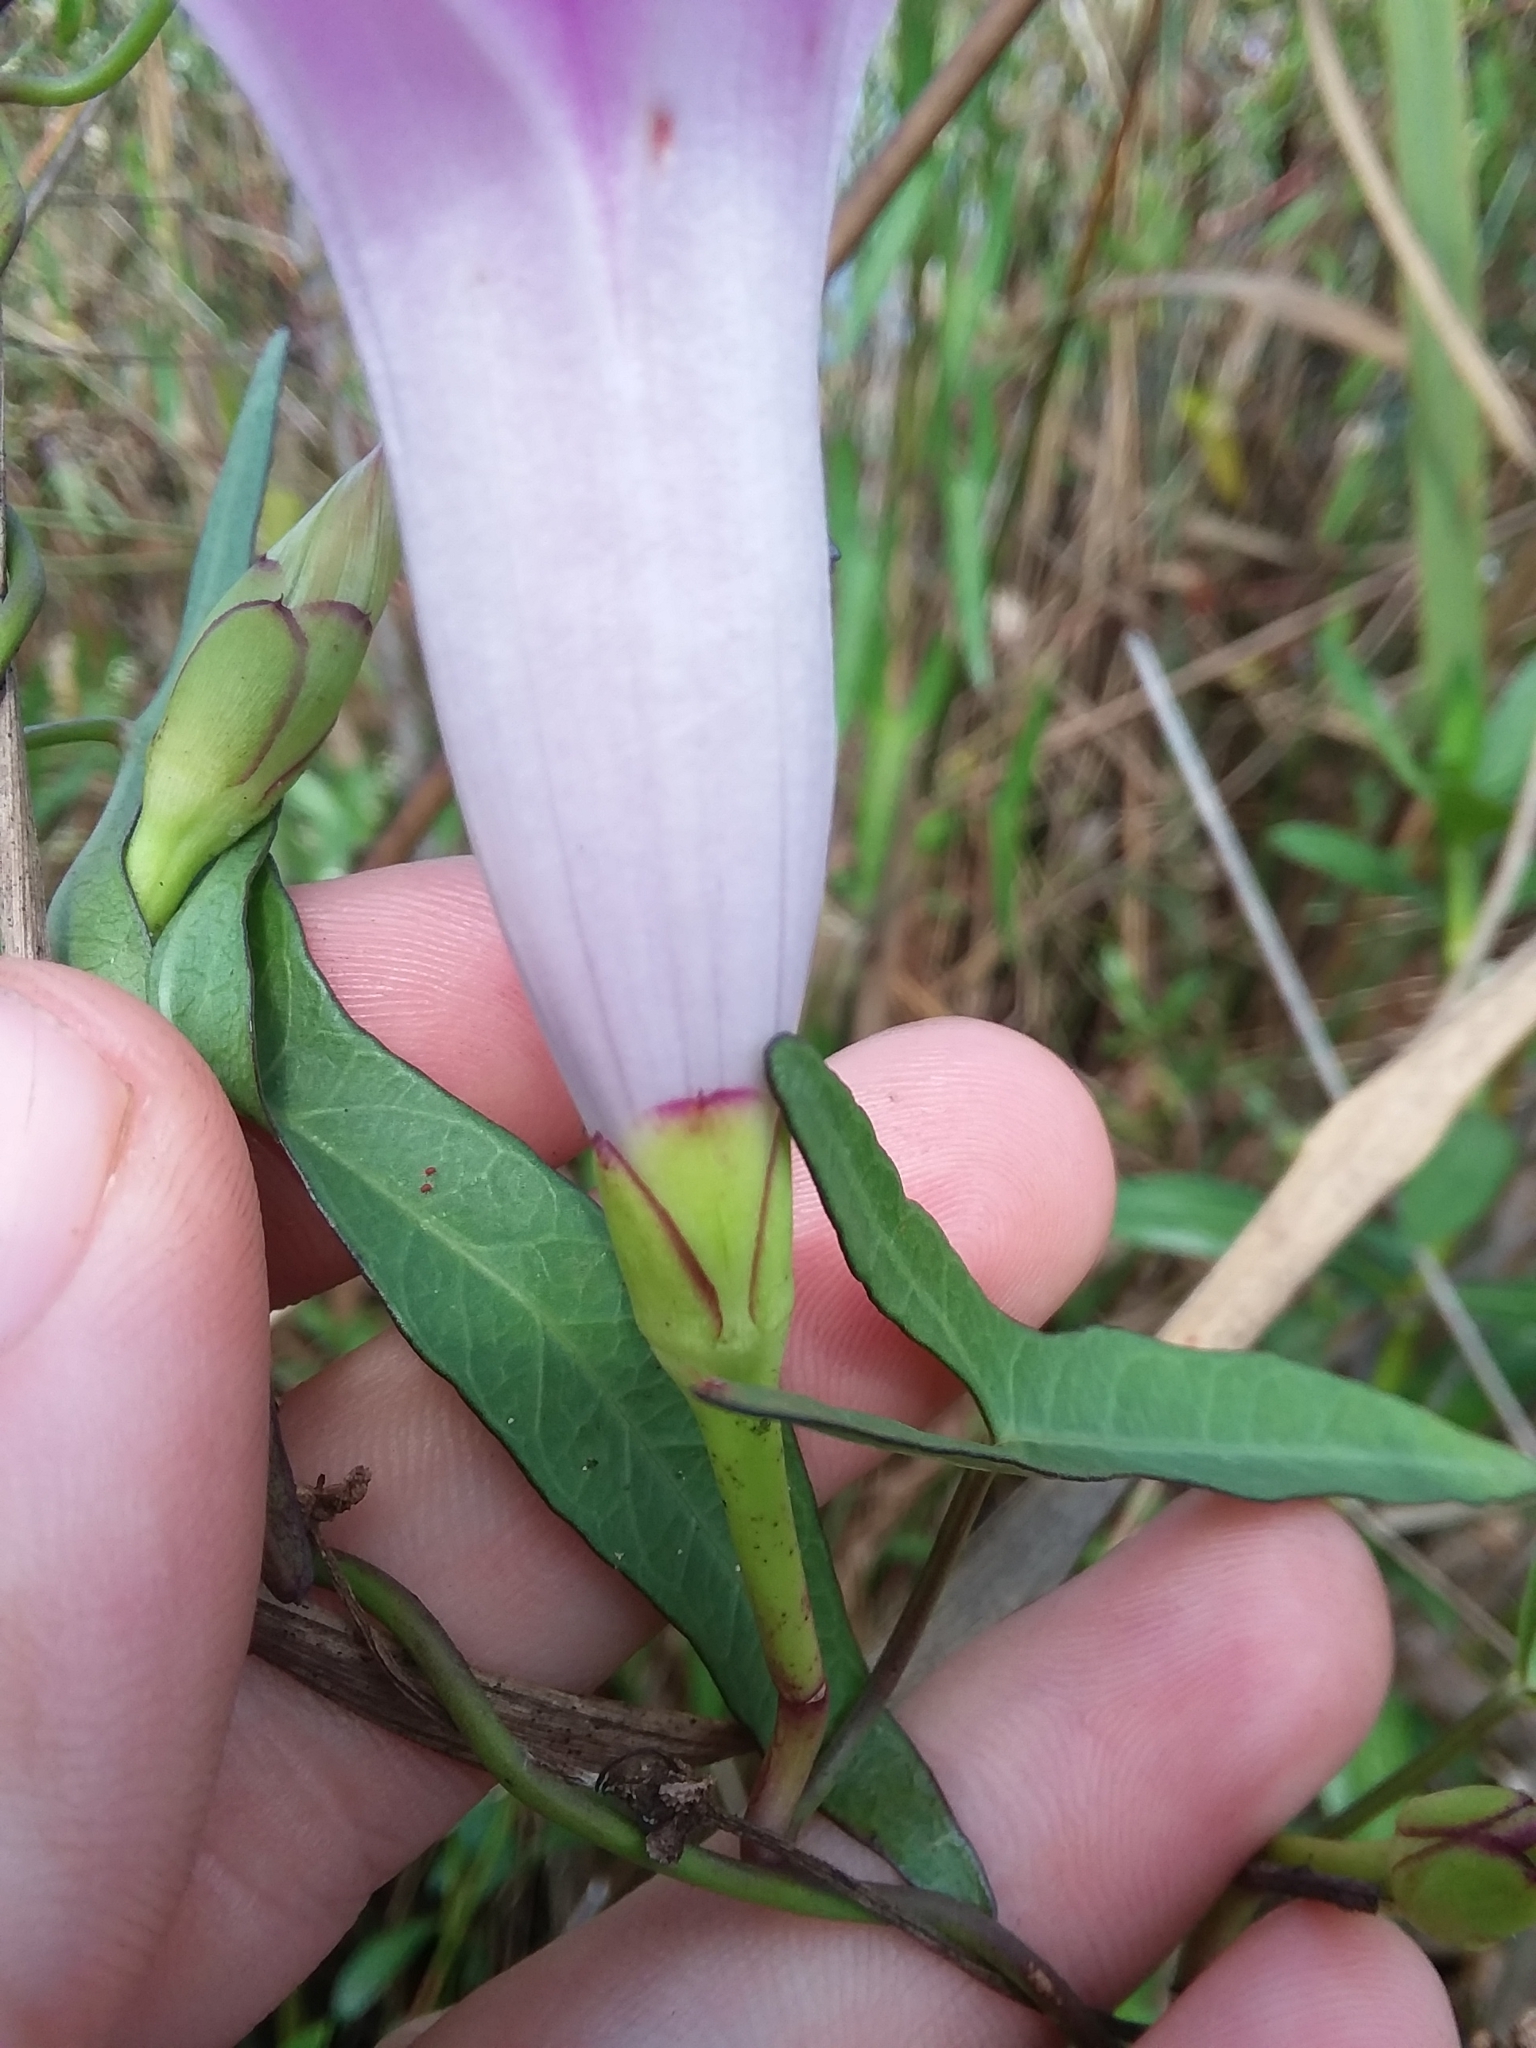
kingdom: Plantae
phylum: Tracheophyta
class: Magnoliopsida
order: Solanales
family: Convolvulaceae
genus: Ipomoea
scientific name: Ipomoea sagittata
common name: Saltmarsh morning glory
